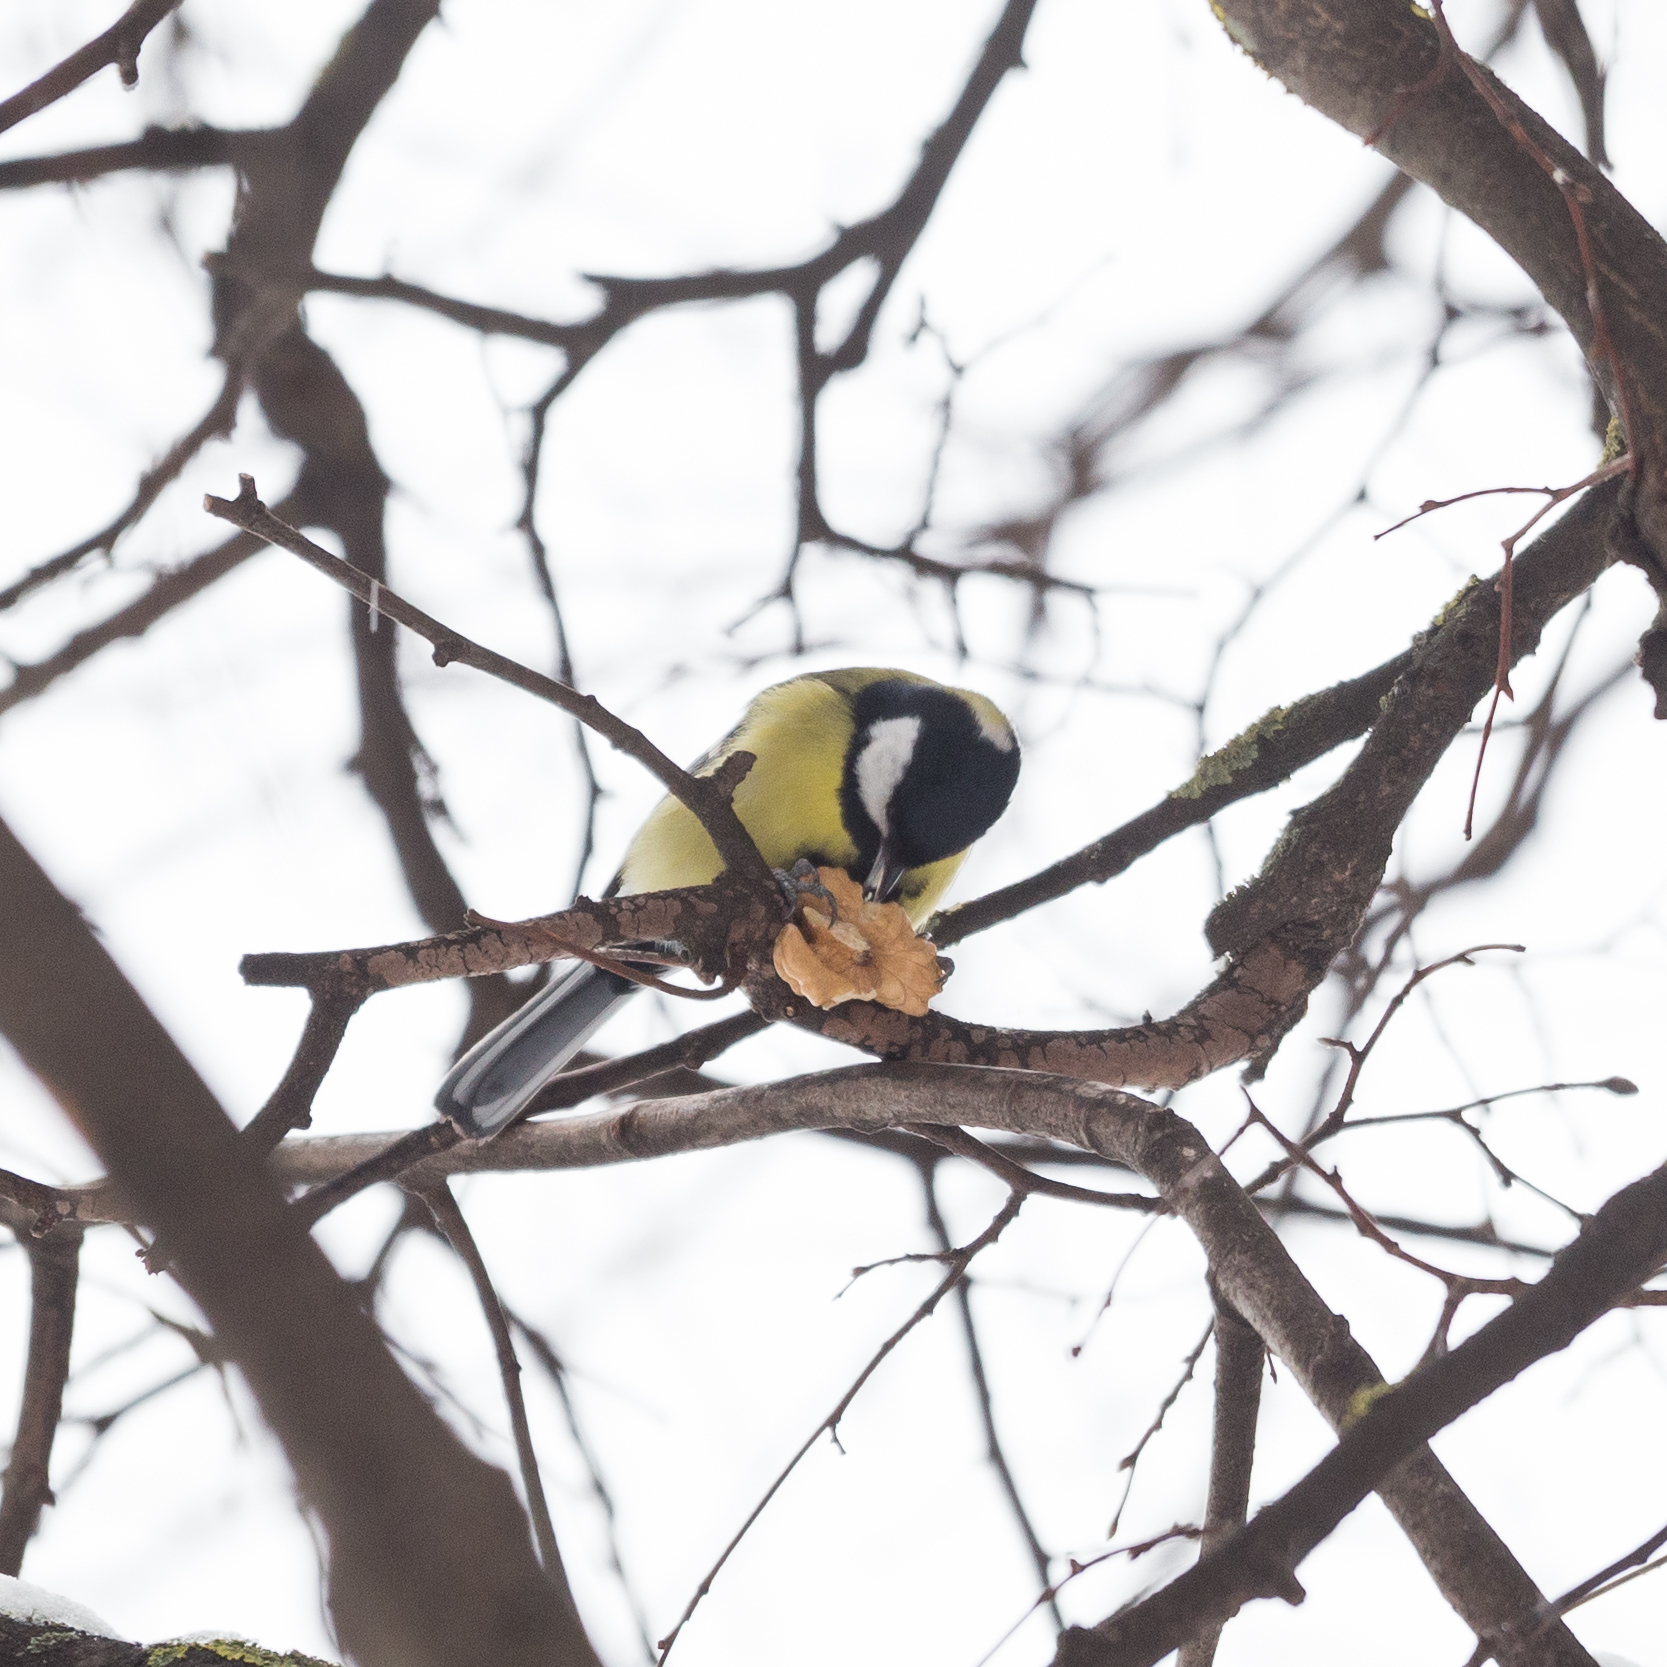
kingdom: Animalia
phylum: Chordata
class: Aves
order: Passeriformes
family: Paridae
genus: Parus
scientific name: Parus major
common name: Great tit
